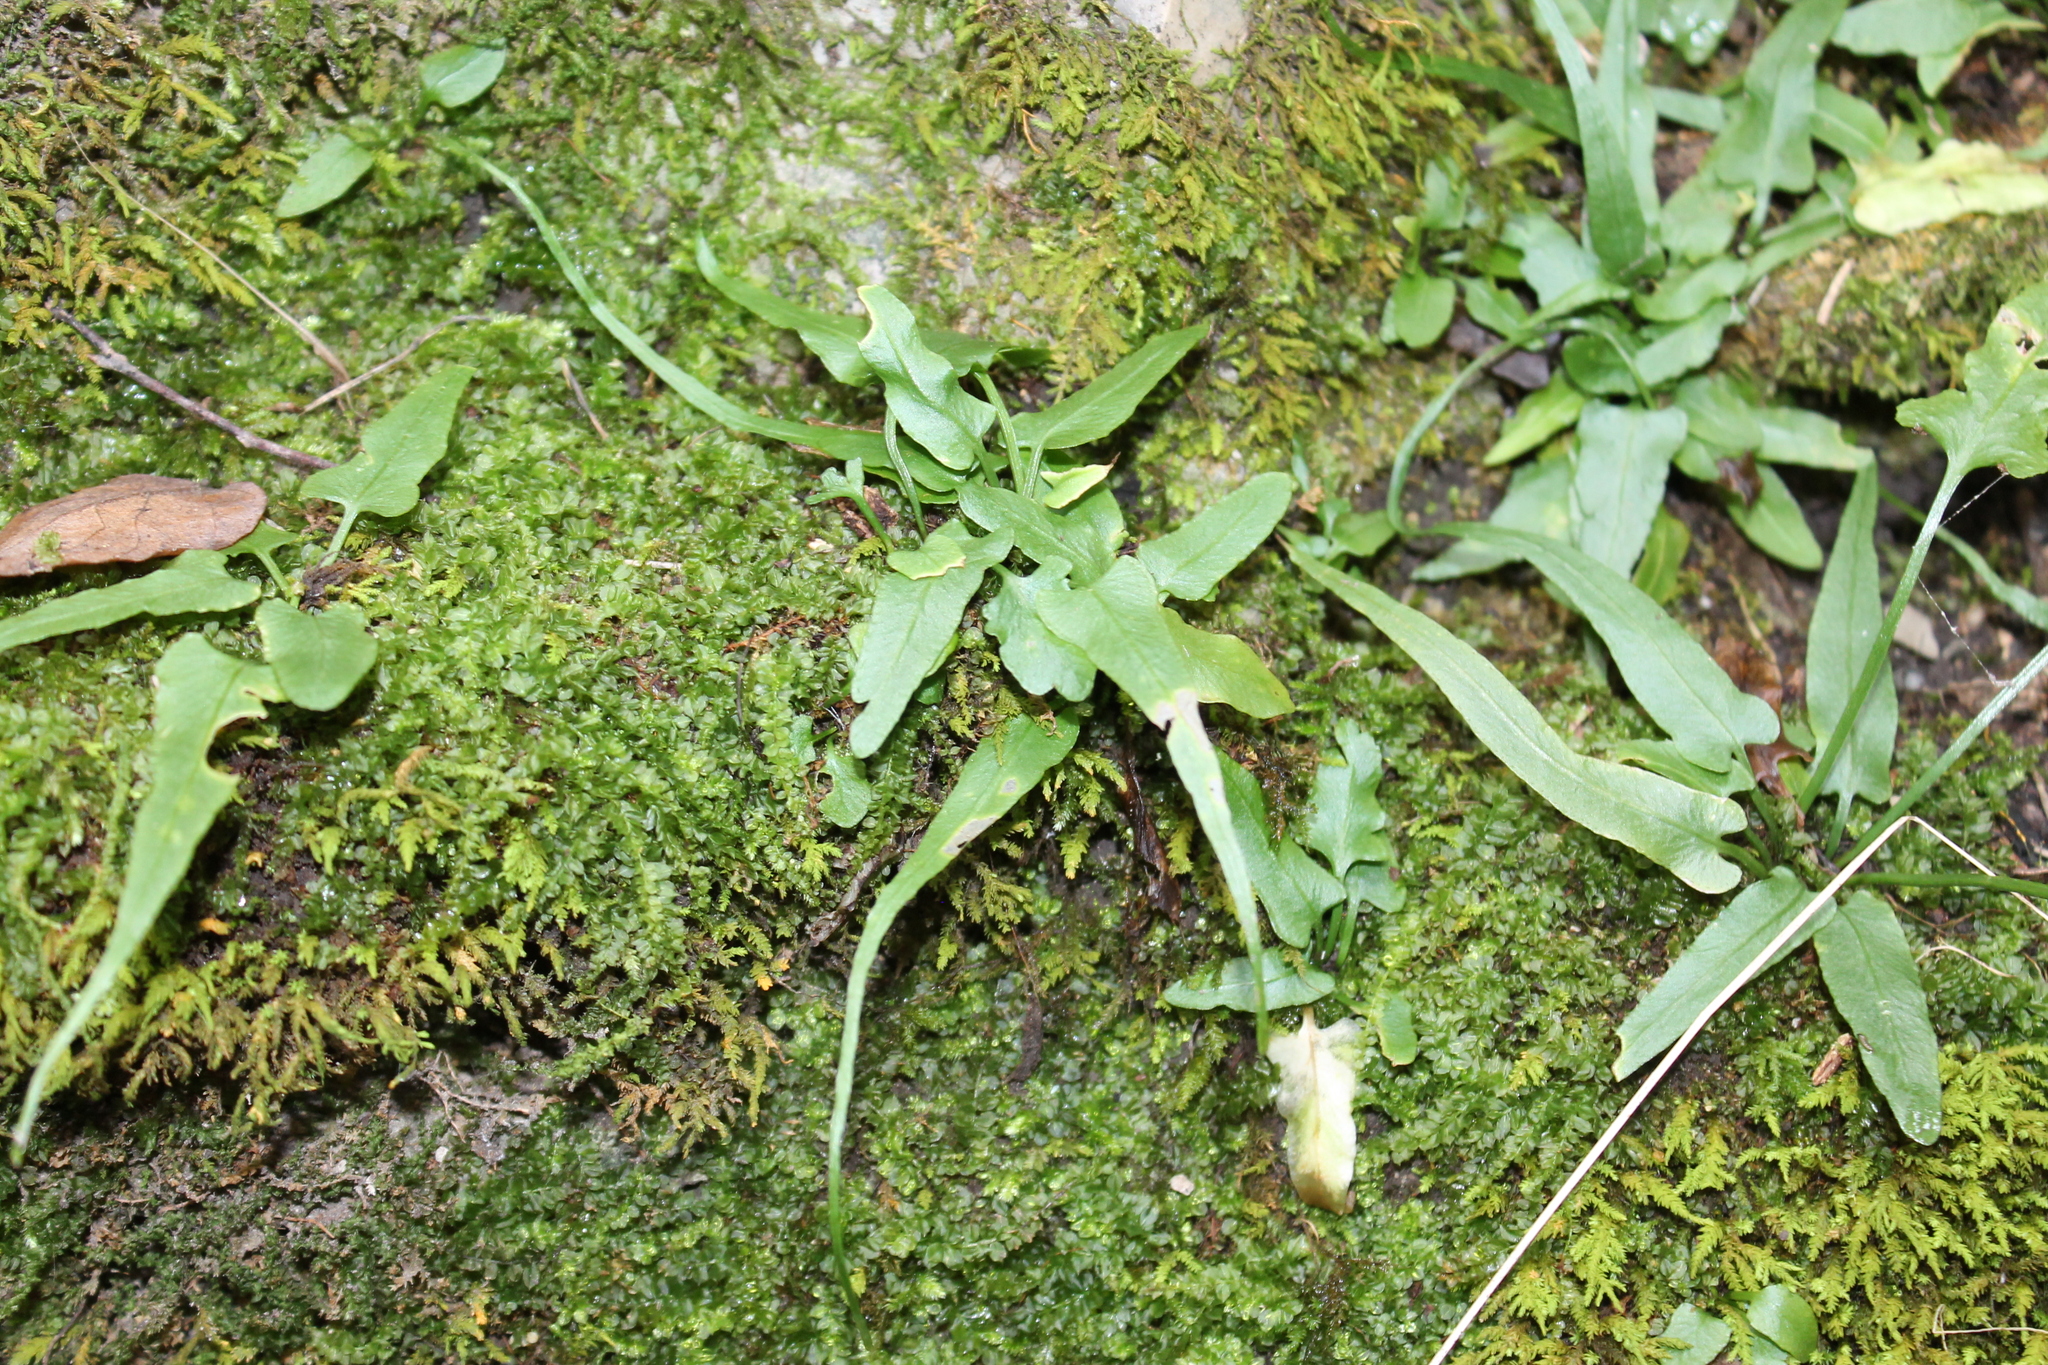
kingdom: Plantae
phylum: Tracheophyta
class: Polypodiopsida
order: Polypodiales
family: Aspleniaceae
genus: Asplenium
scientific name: Asplenium rhizophyllum
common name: Walking fern
